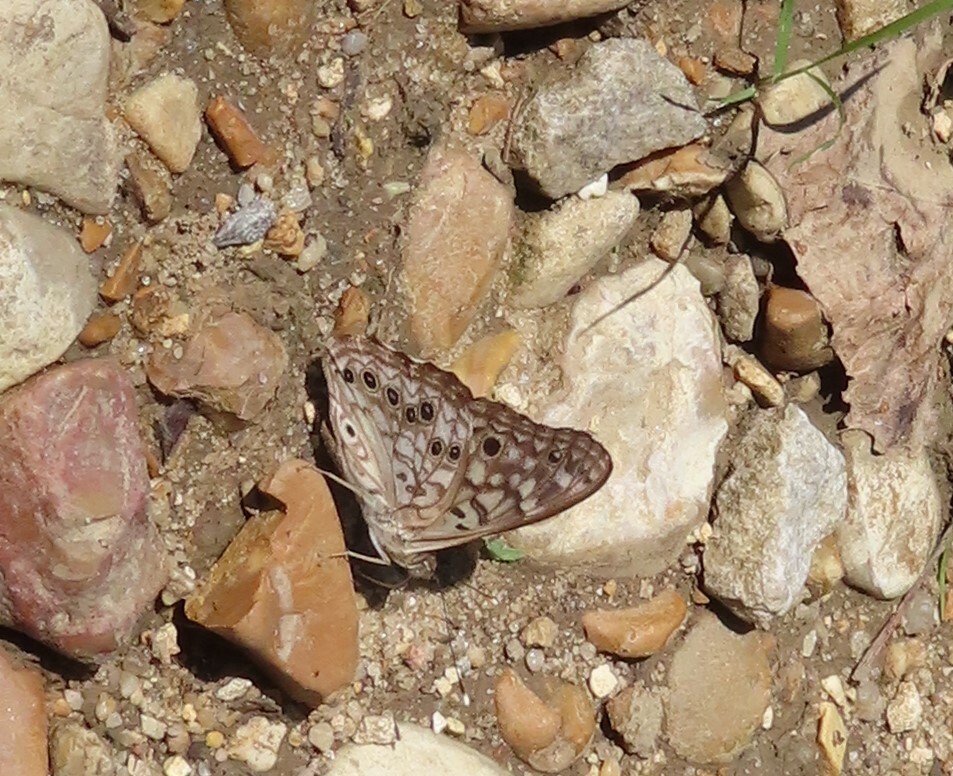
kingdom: Animalia
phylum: Arthropoda
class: Insecta
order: Lepidoptera
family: Nymphalidae
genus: Asterocampa
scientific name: Asterocampa celtis
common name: Hackberry emperor
